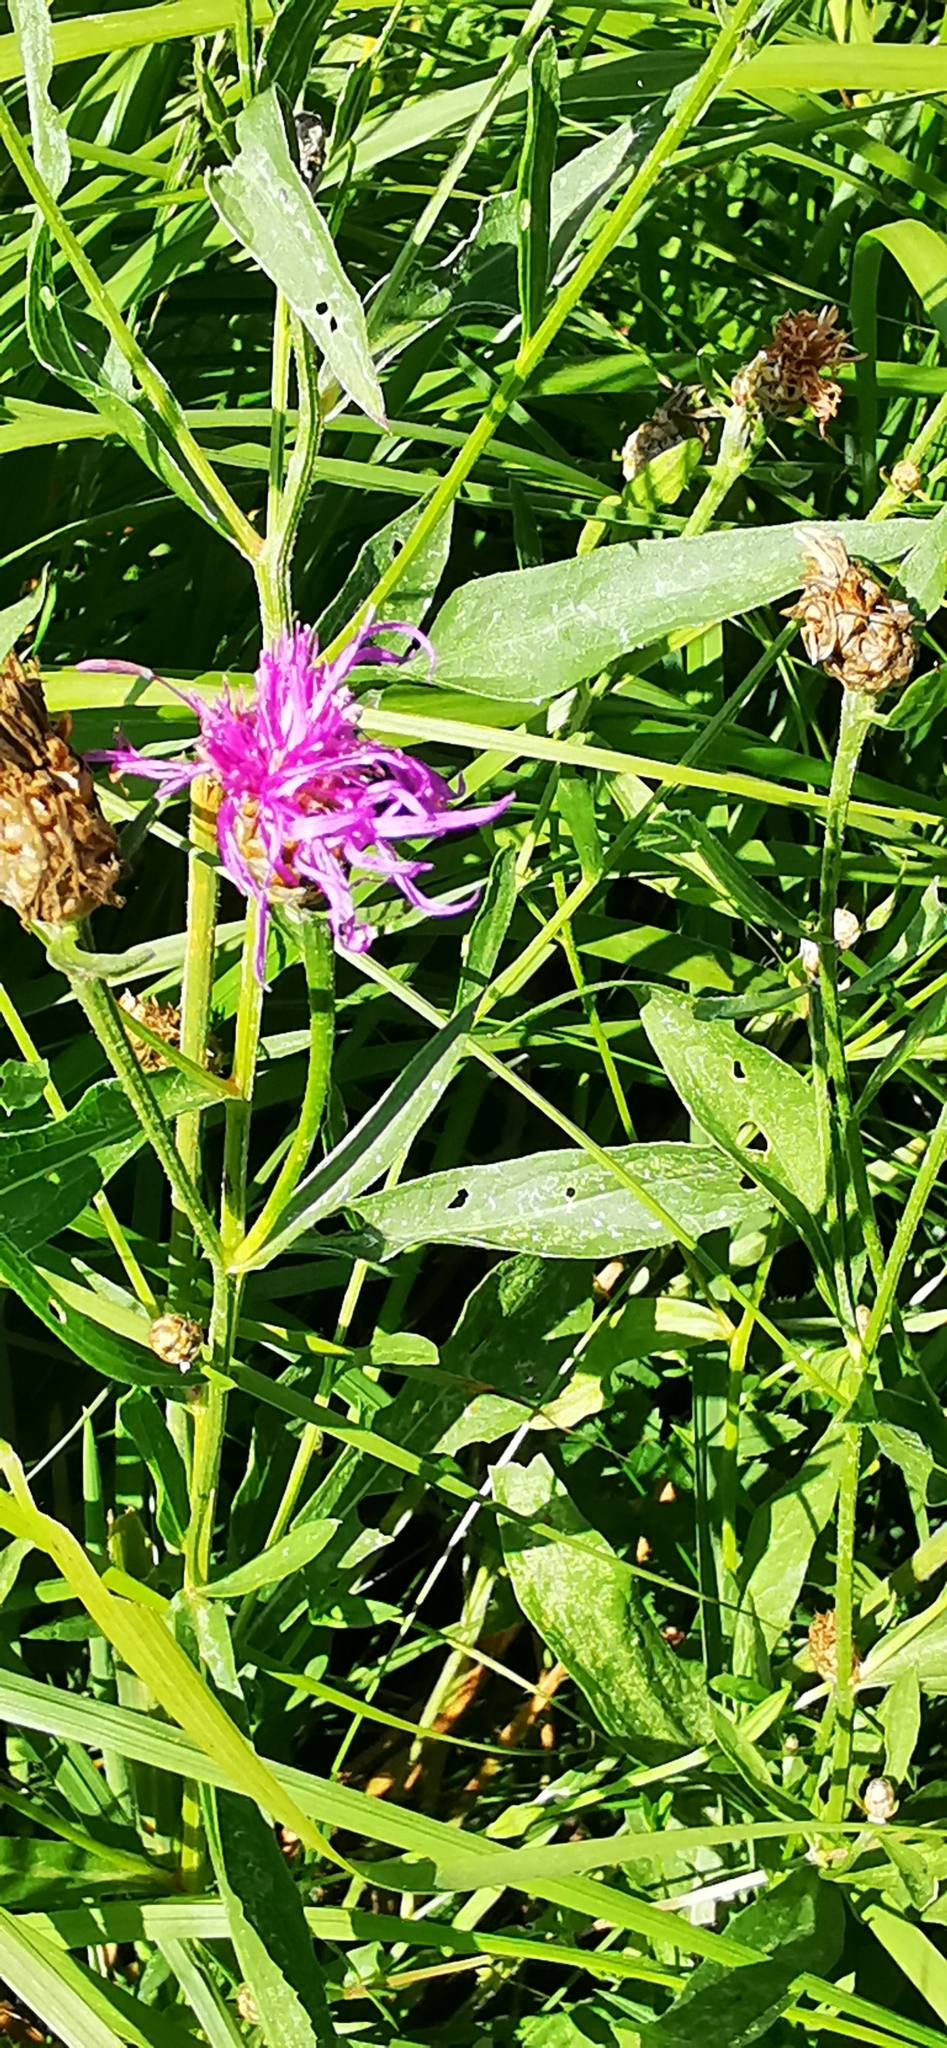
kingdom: Plantae
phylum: Tracheophyta
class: Magnoliopsida
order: Asterales
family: Asteraceae
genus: Centaurea
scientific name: Centaurea jacea
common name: Brown knapweed
